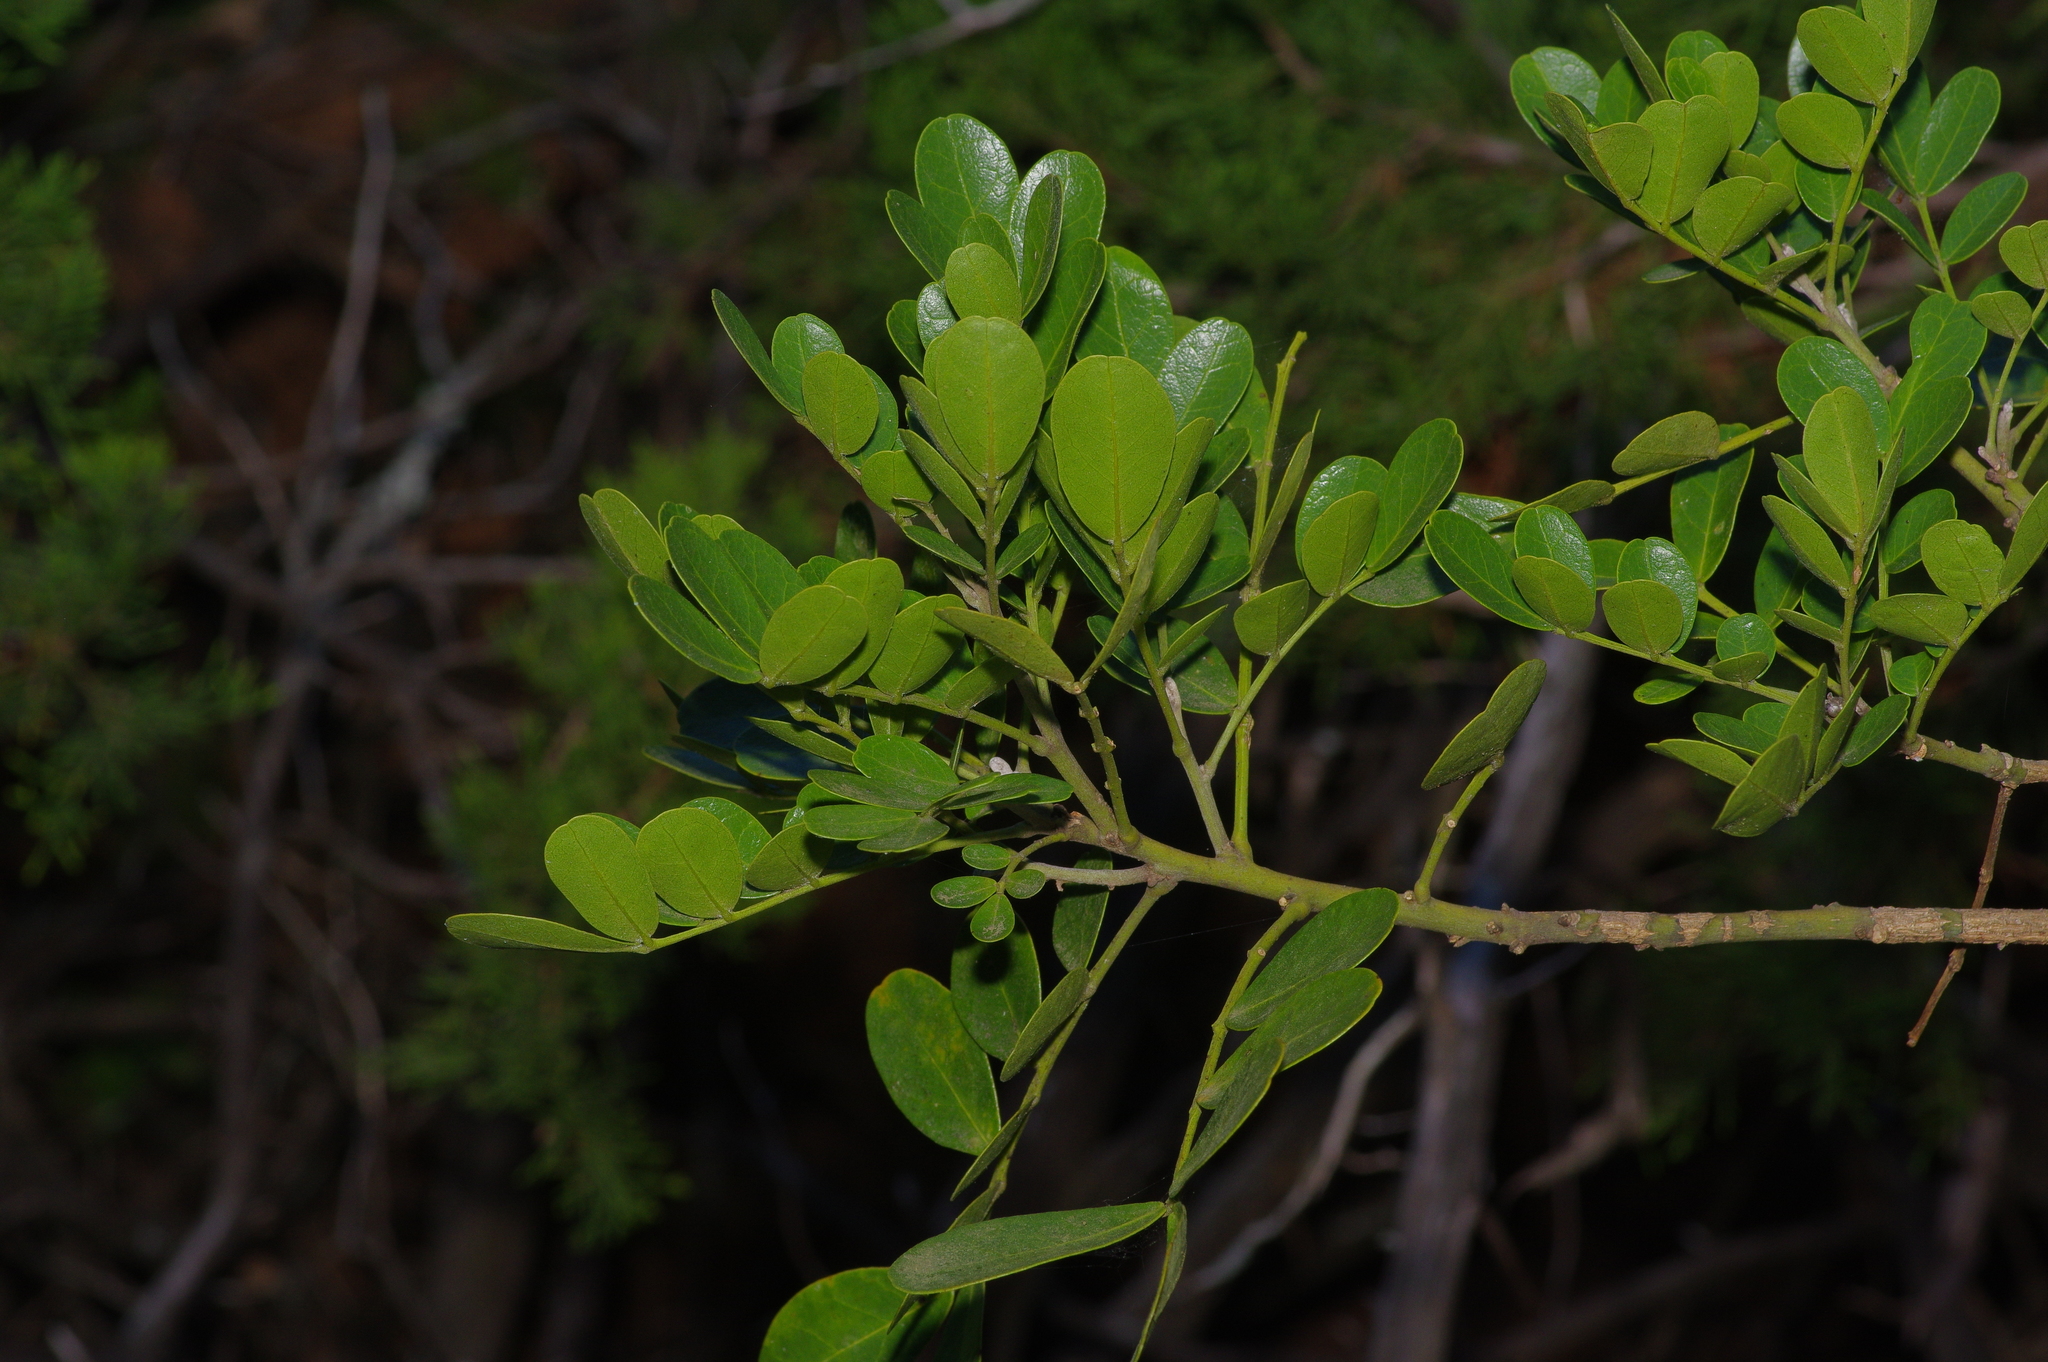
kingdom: Plantae
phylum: Tracheophyta
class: Magnoliopsida
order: Fabales
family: Fabaceae
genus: Dermatophyllum
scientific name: Dermatophyllum secundiflorum
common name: Texas-mountain-laurel
